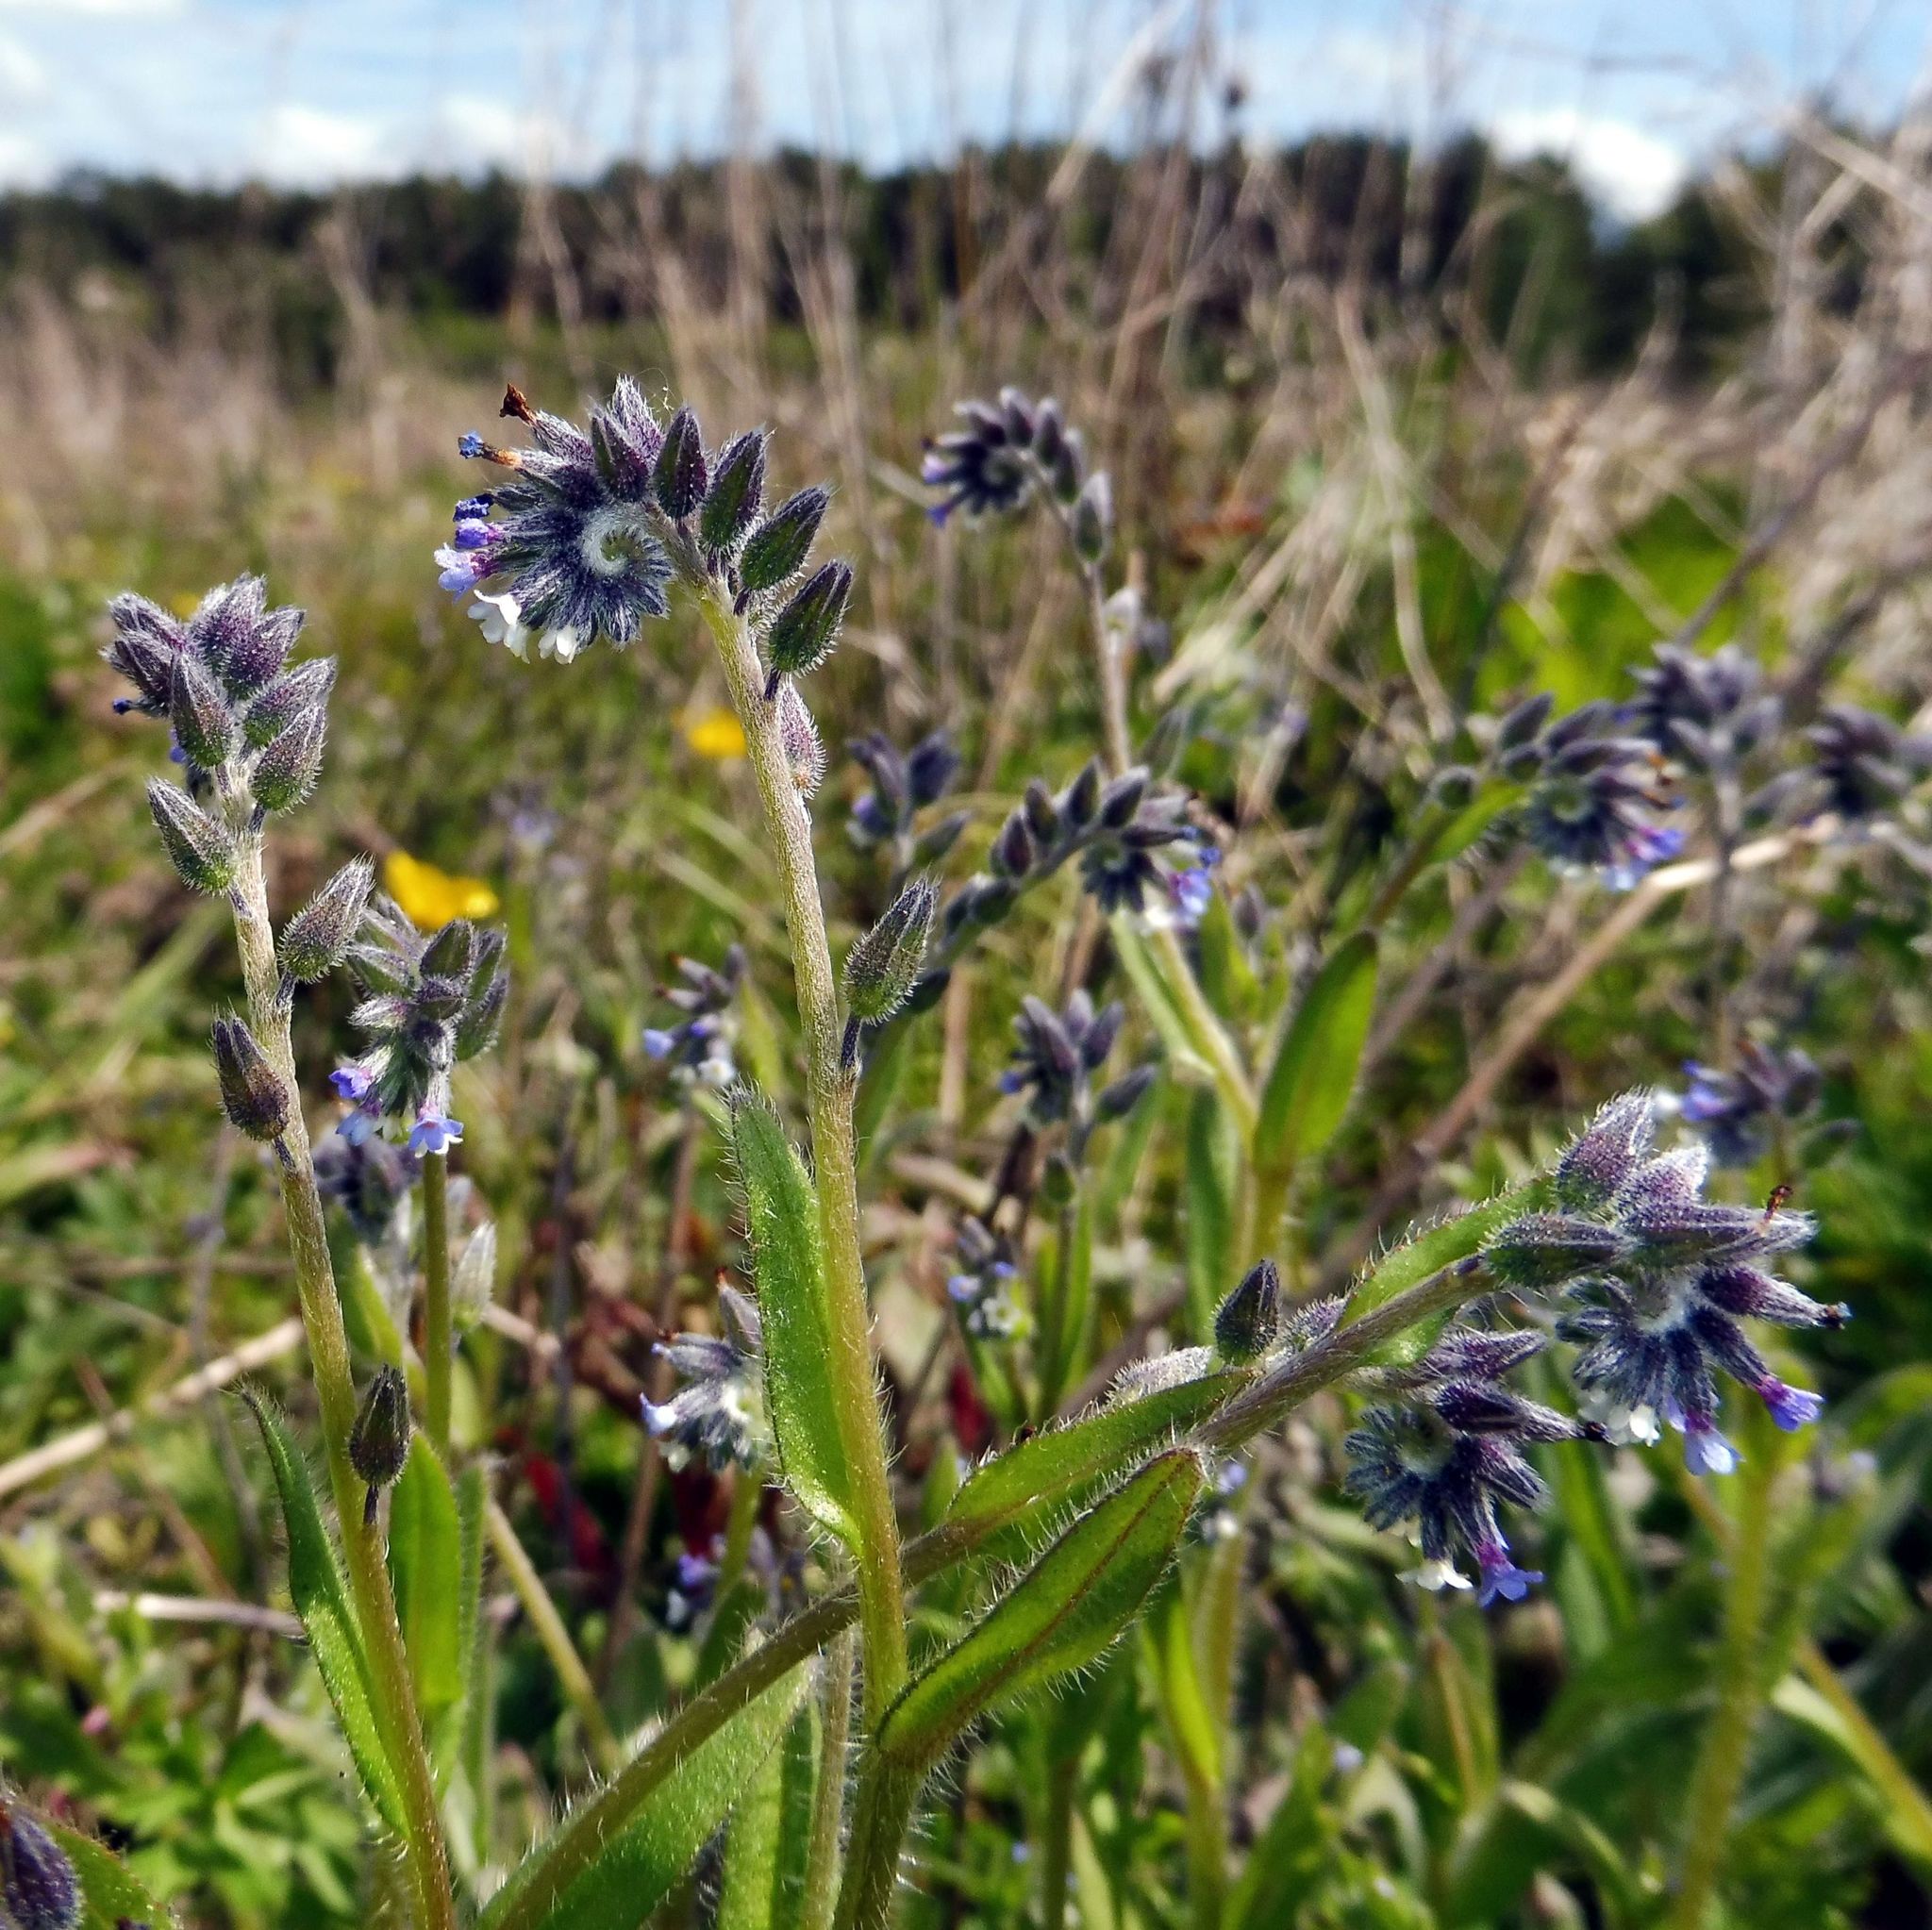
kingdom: Plantae
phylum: Tracheophyta
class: Magnoliopsida
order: Boraginales
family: Boraginaceae
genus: Myosotis
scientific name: Myosotis discolor
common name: Changing forget-me-not
